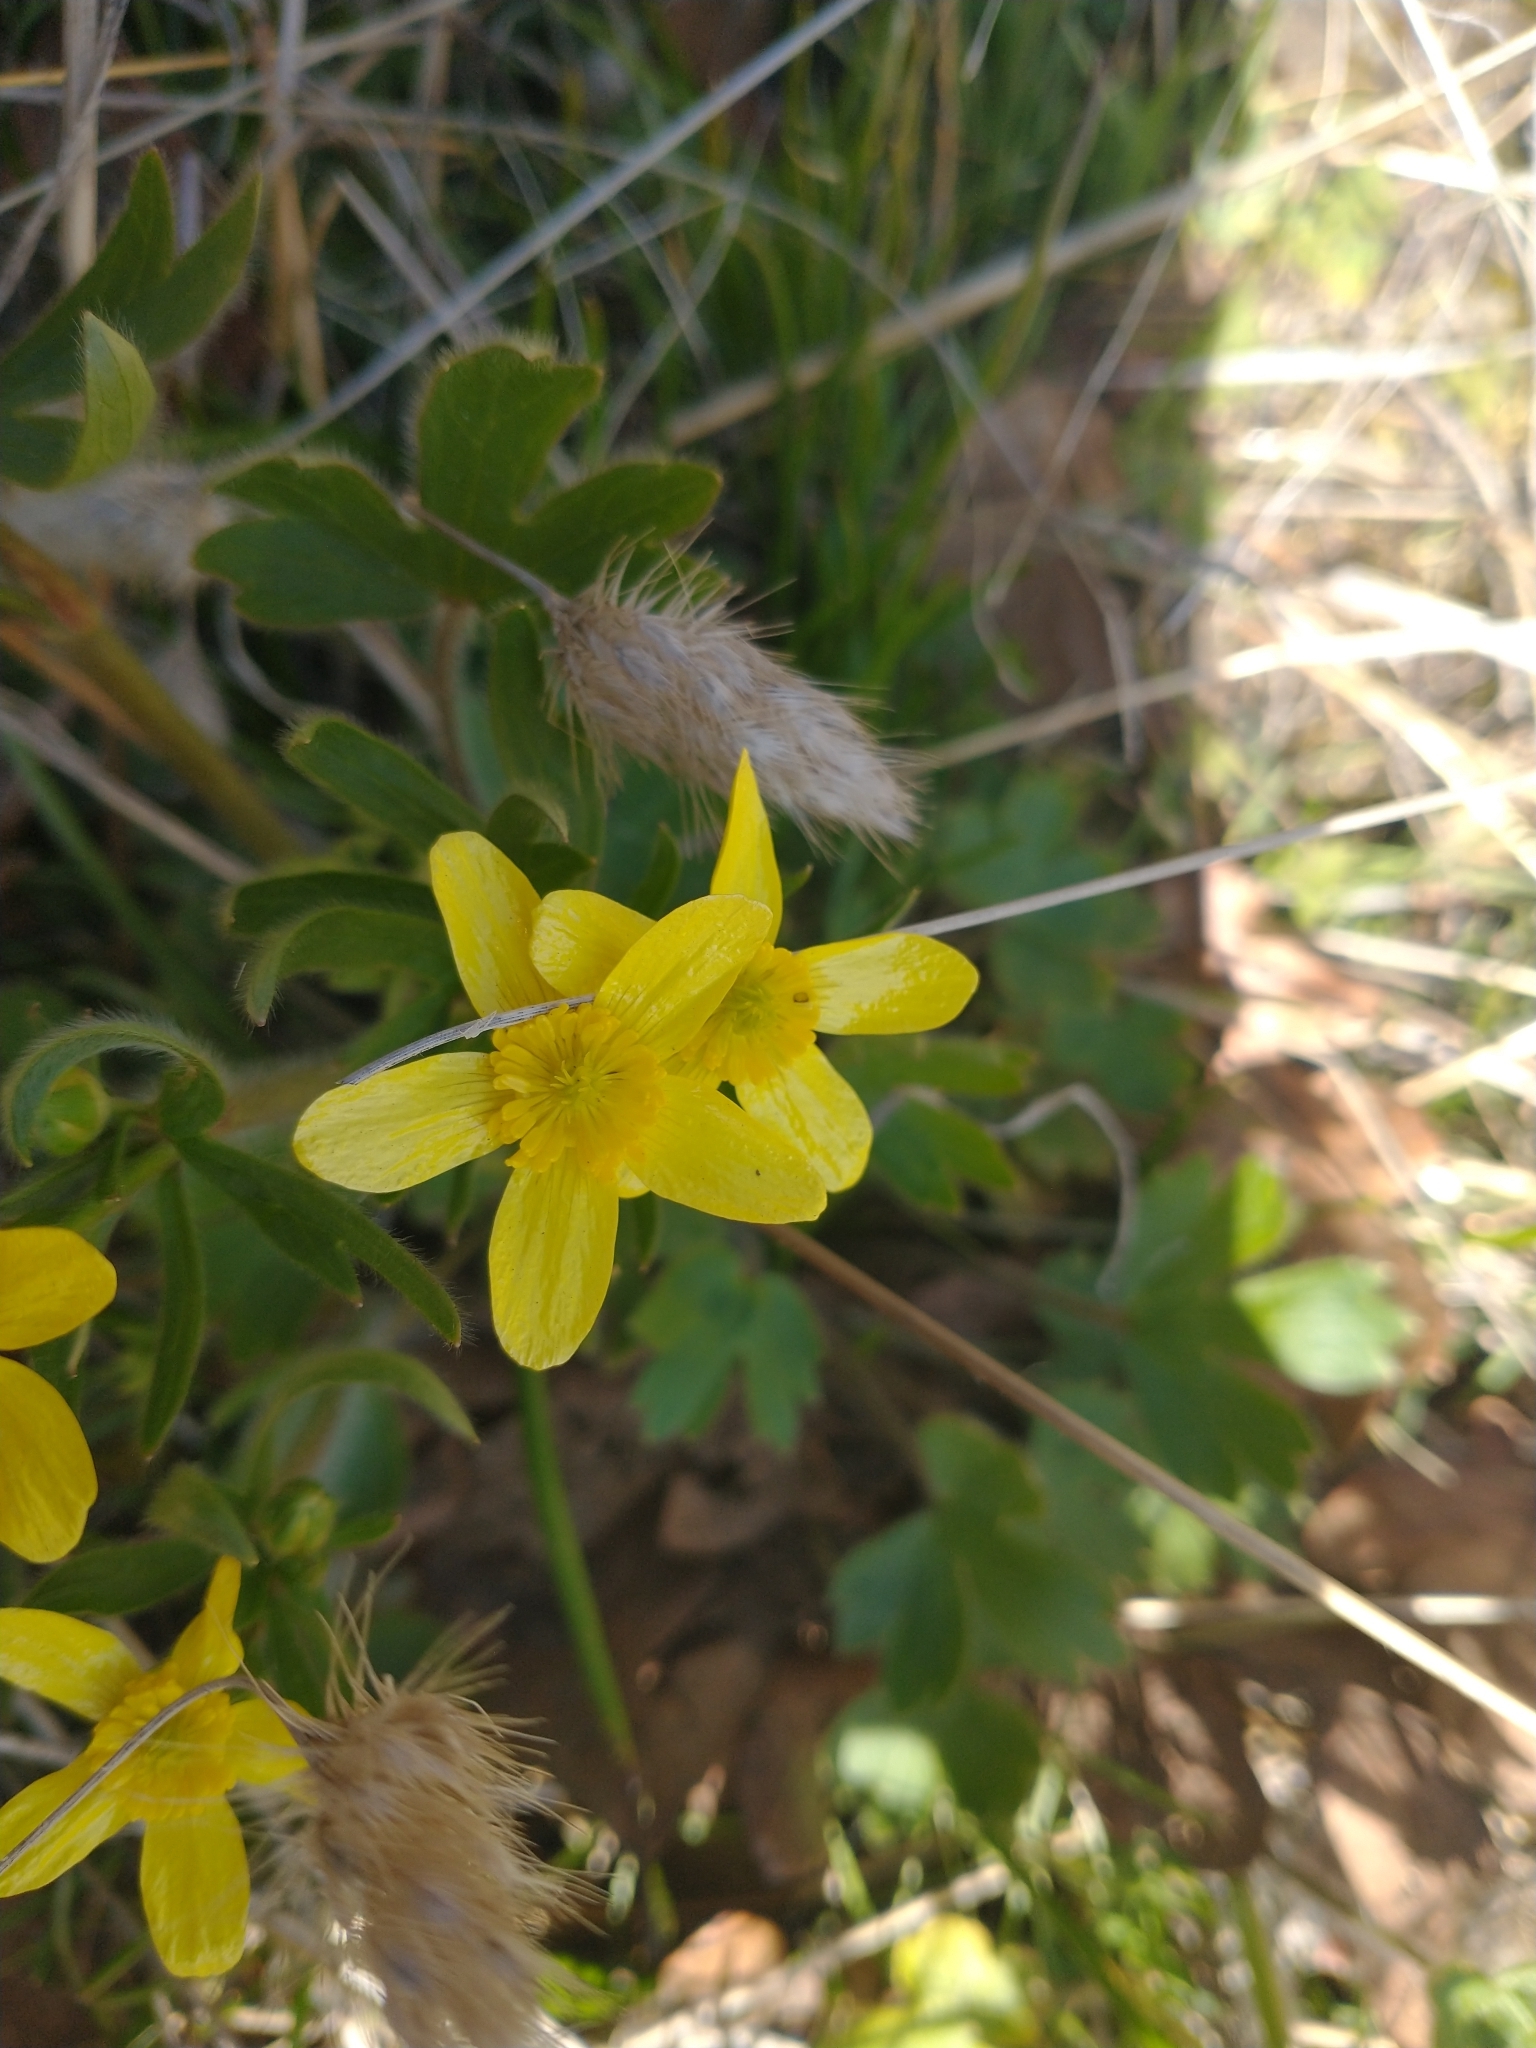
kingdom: Plantae
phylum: Tracheophyta
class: Magnoliopsida
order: Ranunculales
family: Ranunculaceae
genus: Ranunculus
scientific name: Ranunculus occidentalis
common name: Western buttercup
